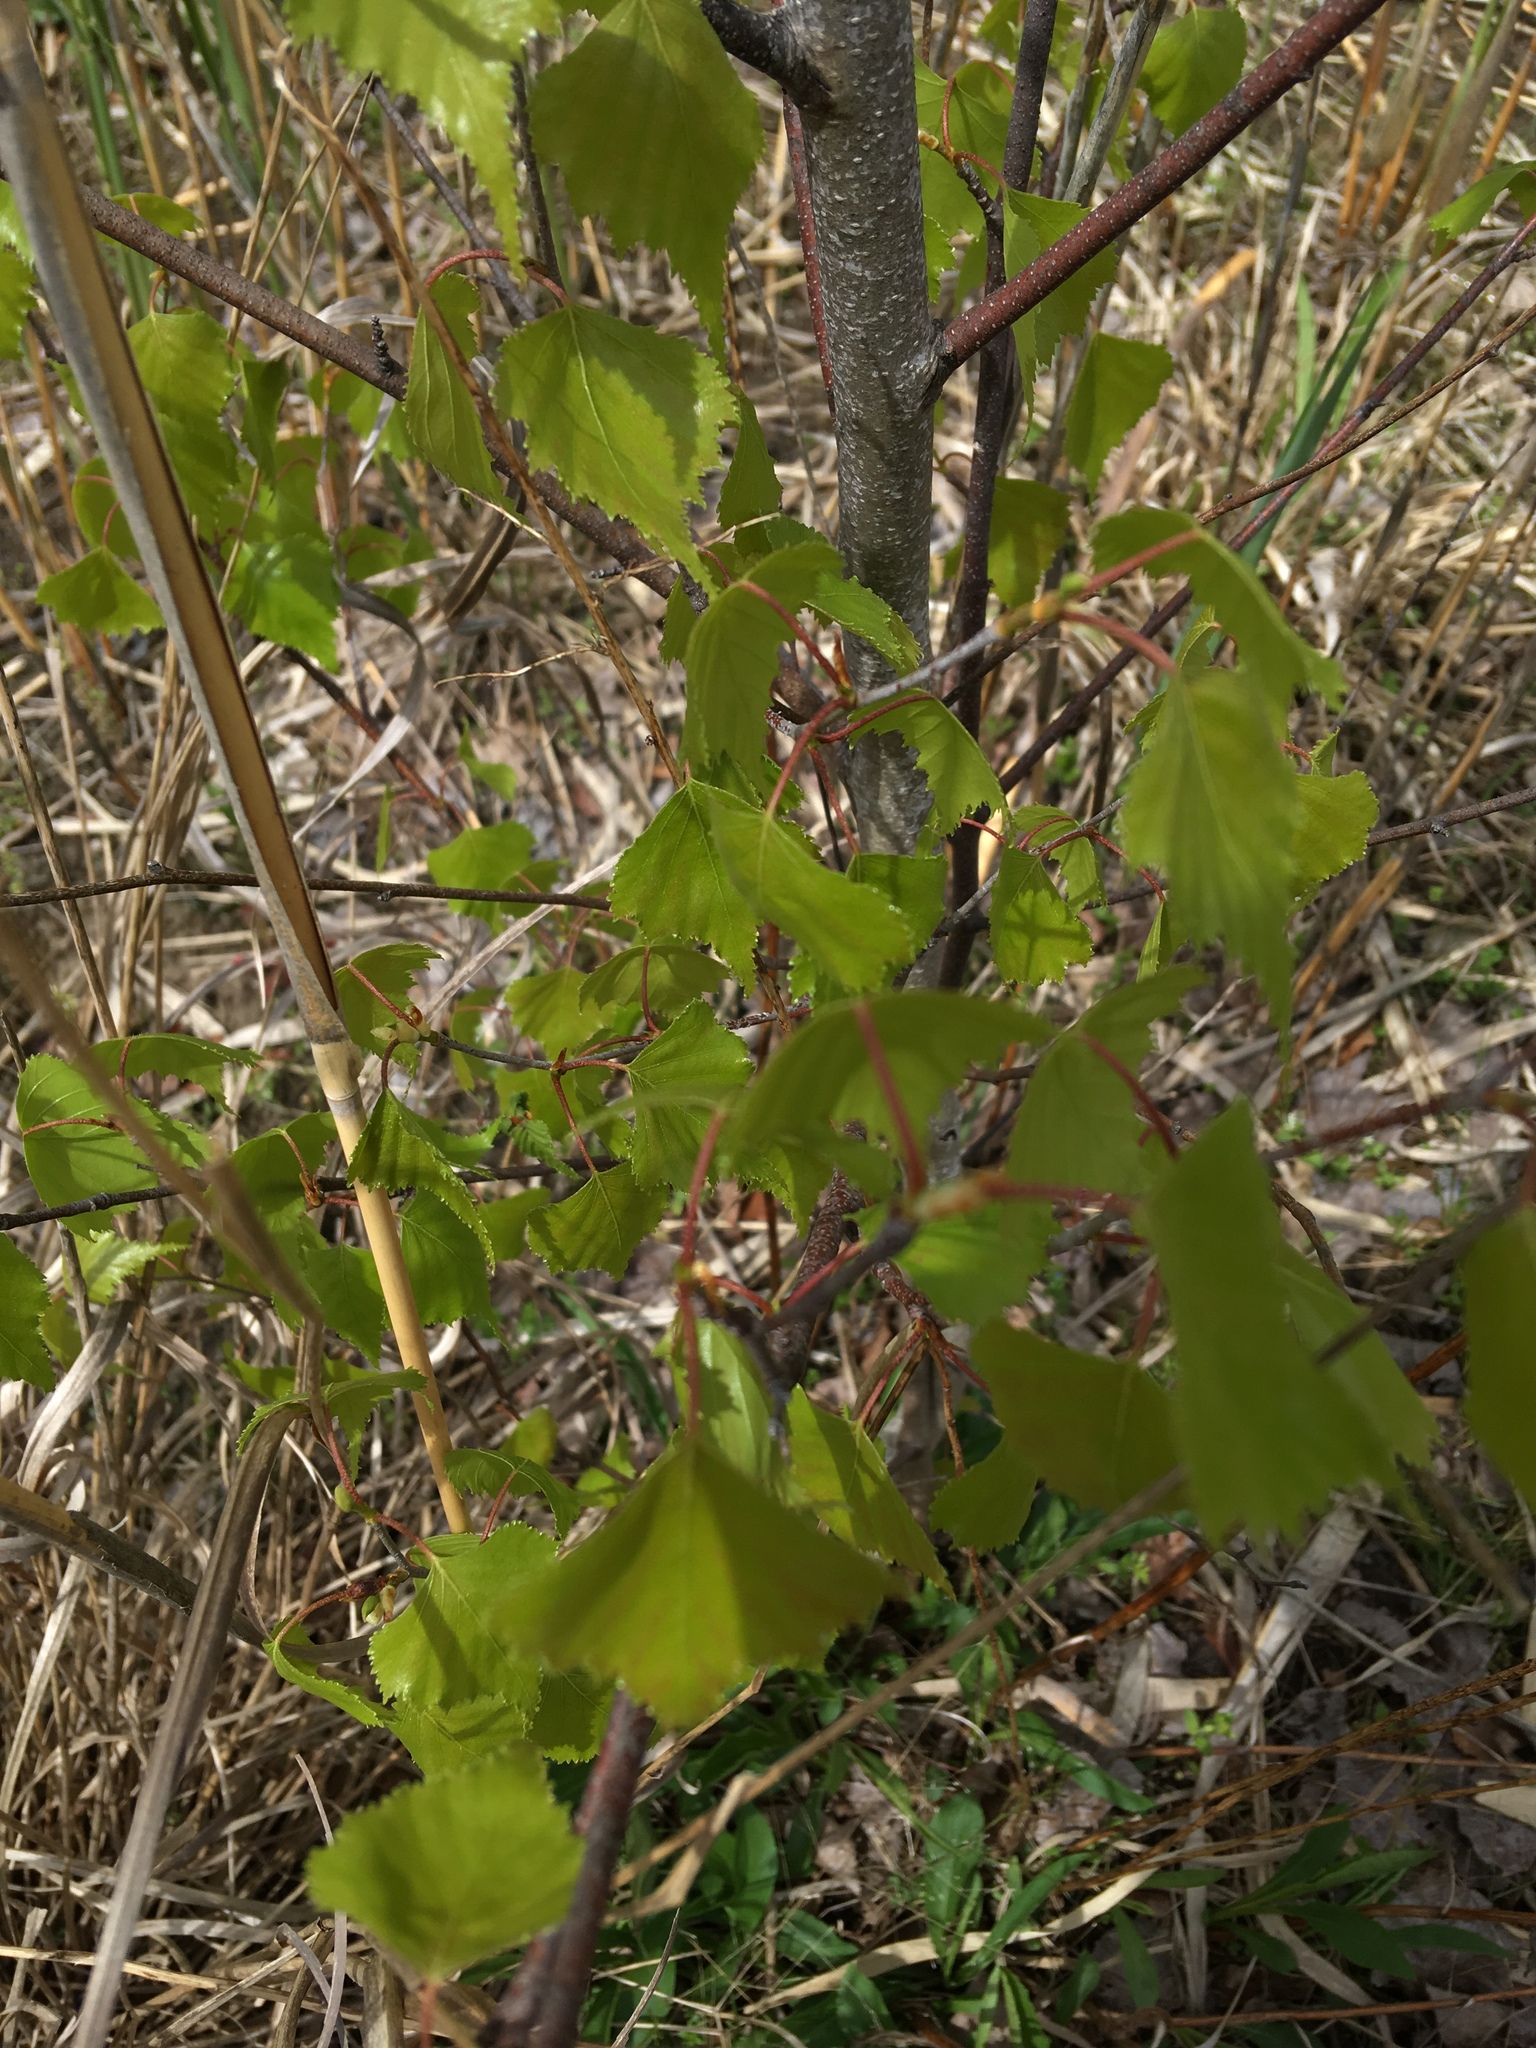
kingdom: Plantae
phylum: Tracheophyta
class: Magnoliopsida
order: Fagales
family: Betulaceae
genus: Betula
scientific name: Betula populifolia
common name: Fire birch
